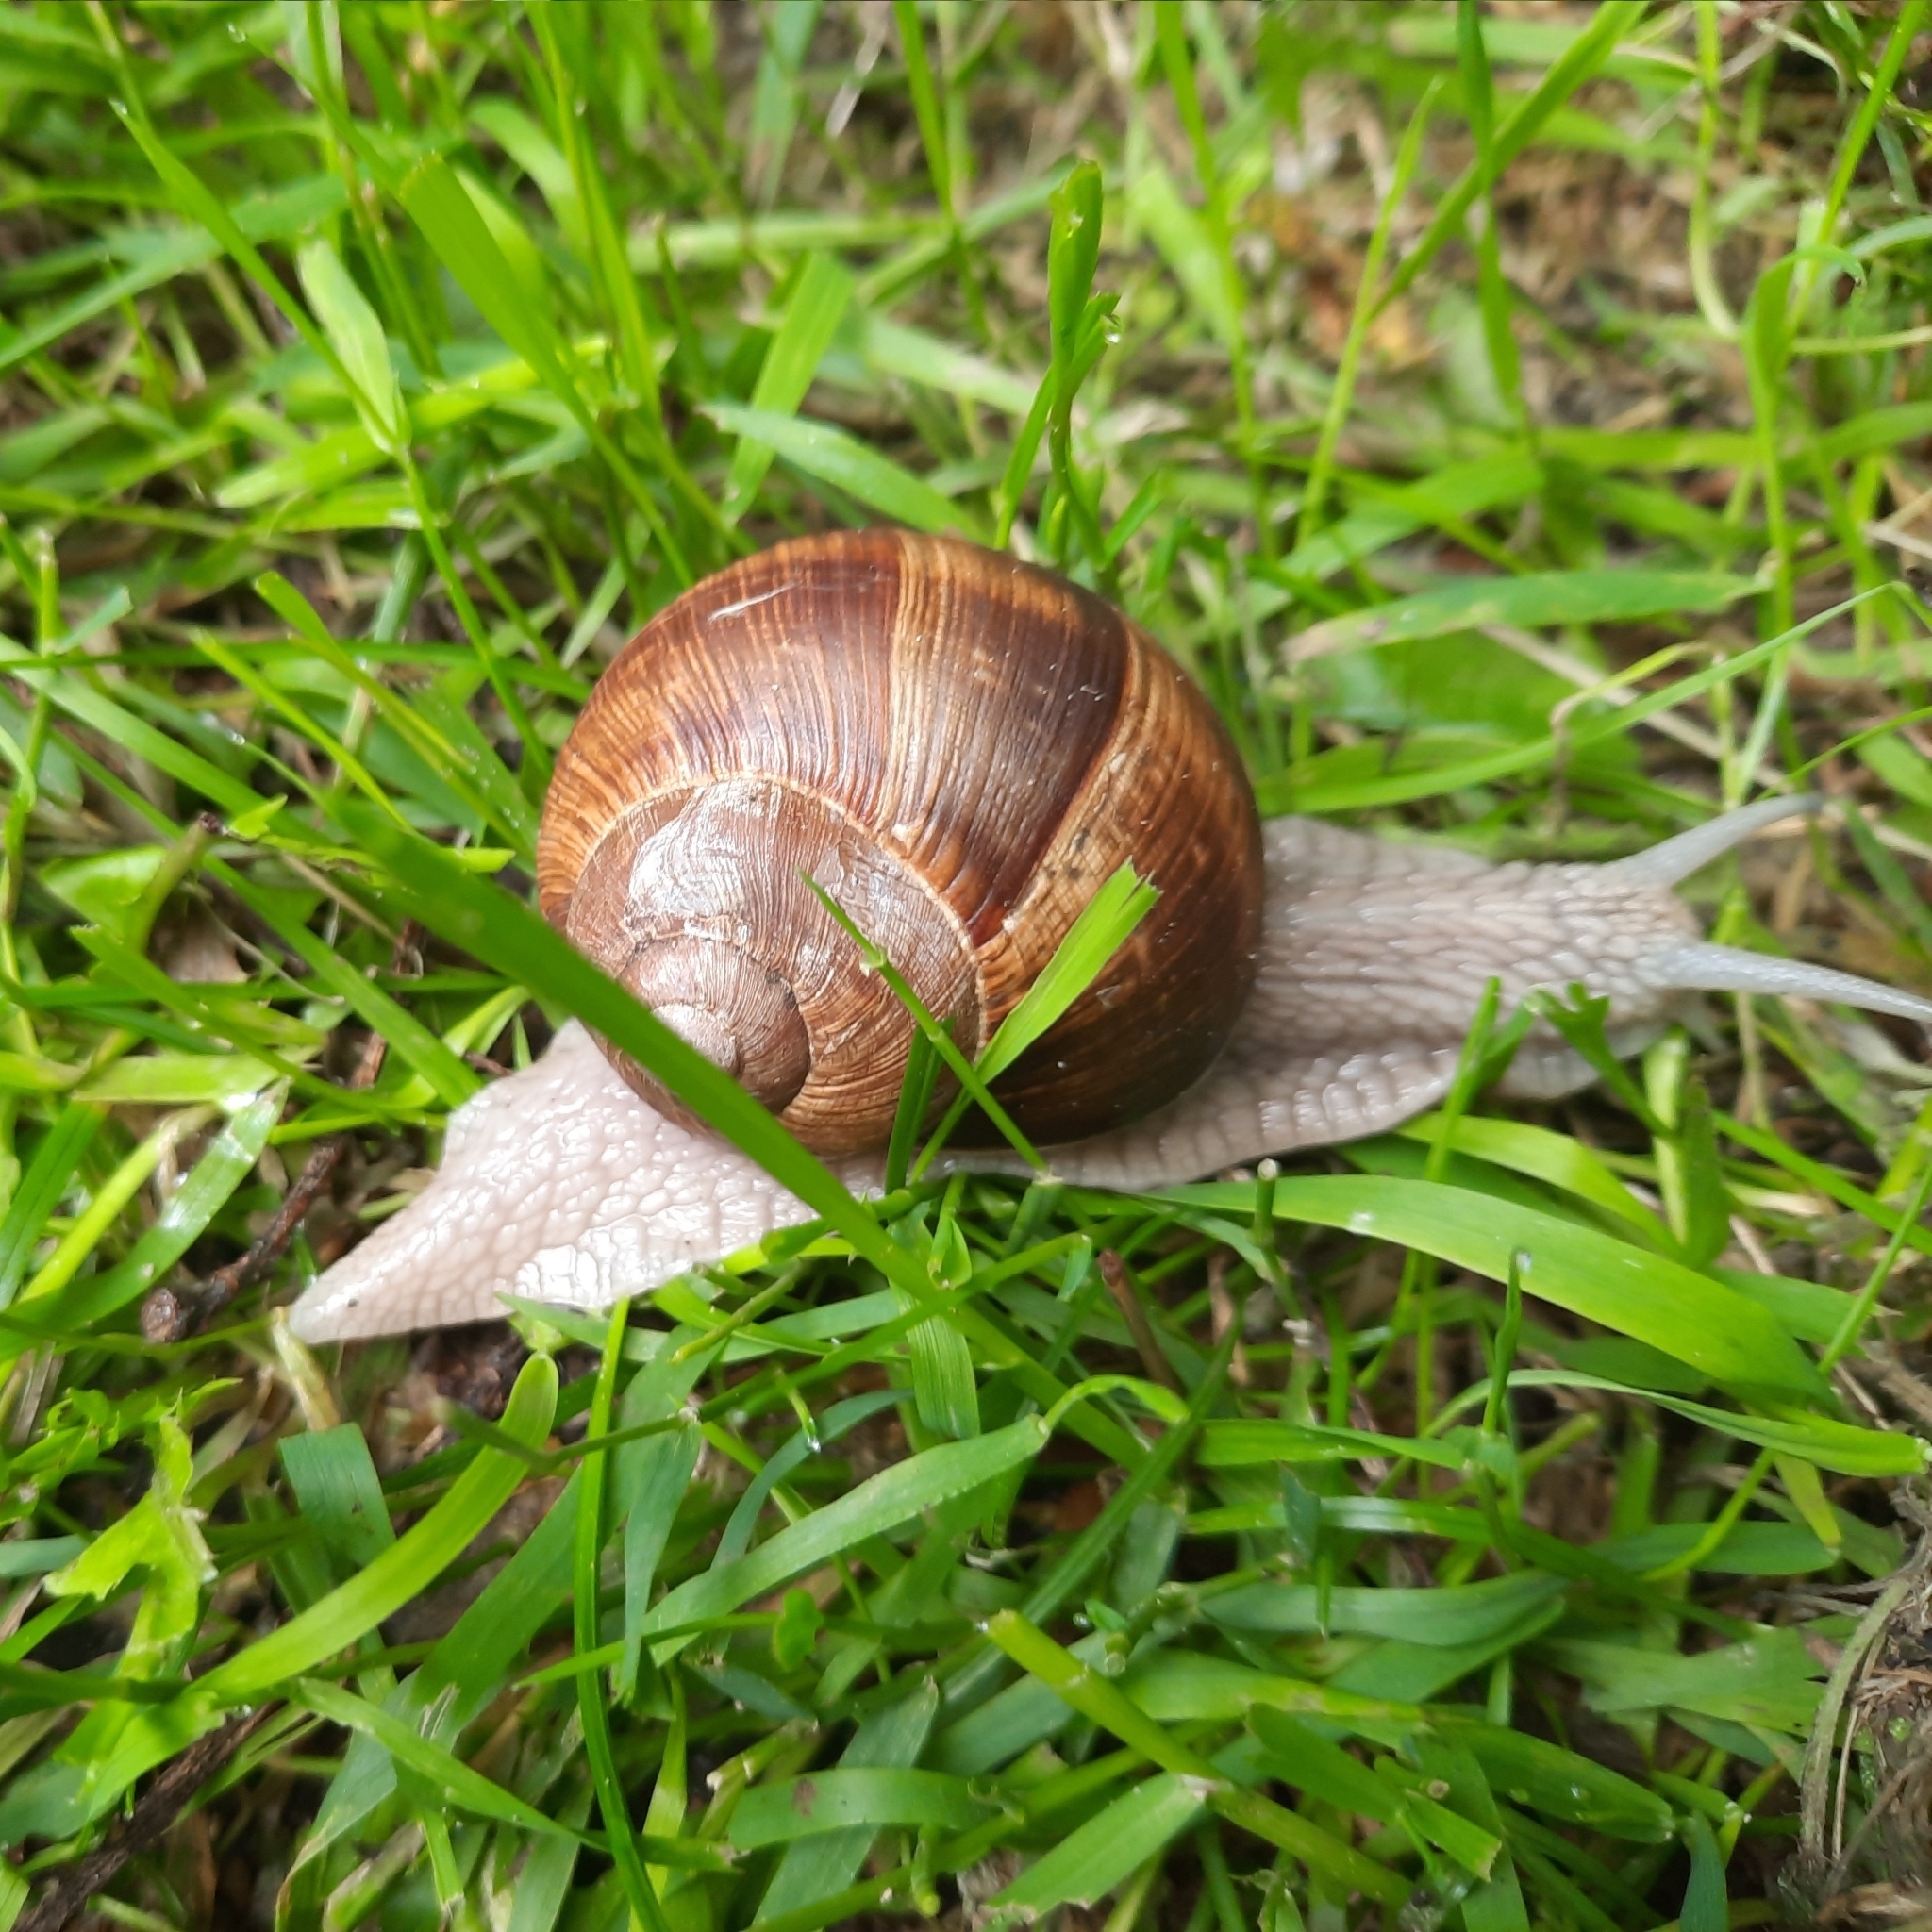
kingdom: Animalia
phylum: Mollusca
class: Gastropoda
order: Stylommatophora
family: Helicidae
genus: Helix
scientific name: Helix pomatia
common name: Roman snail
